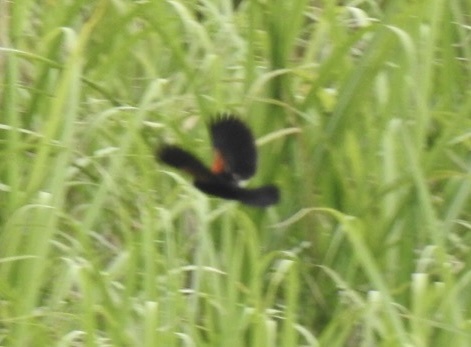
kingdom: Animalia
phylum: Chordata
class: Aves
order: Passeriformes
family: Ploceidae
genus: Euplectes
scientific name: Euplectes axillaris
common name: Fan-tailed widowbird
